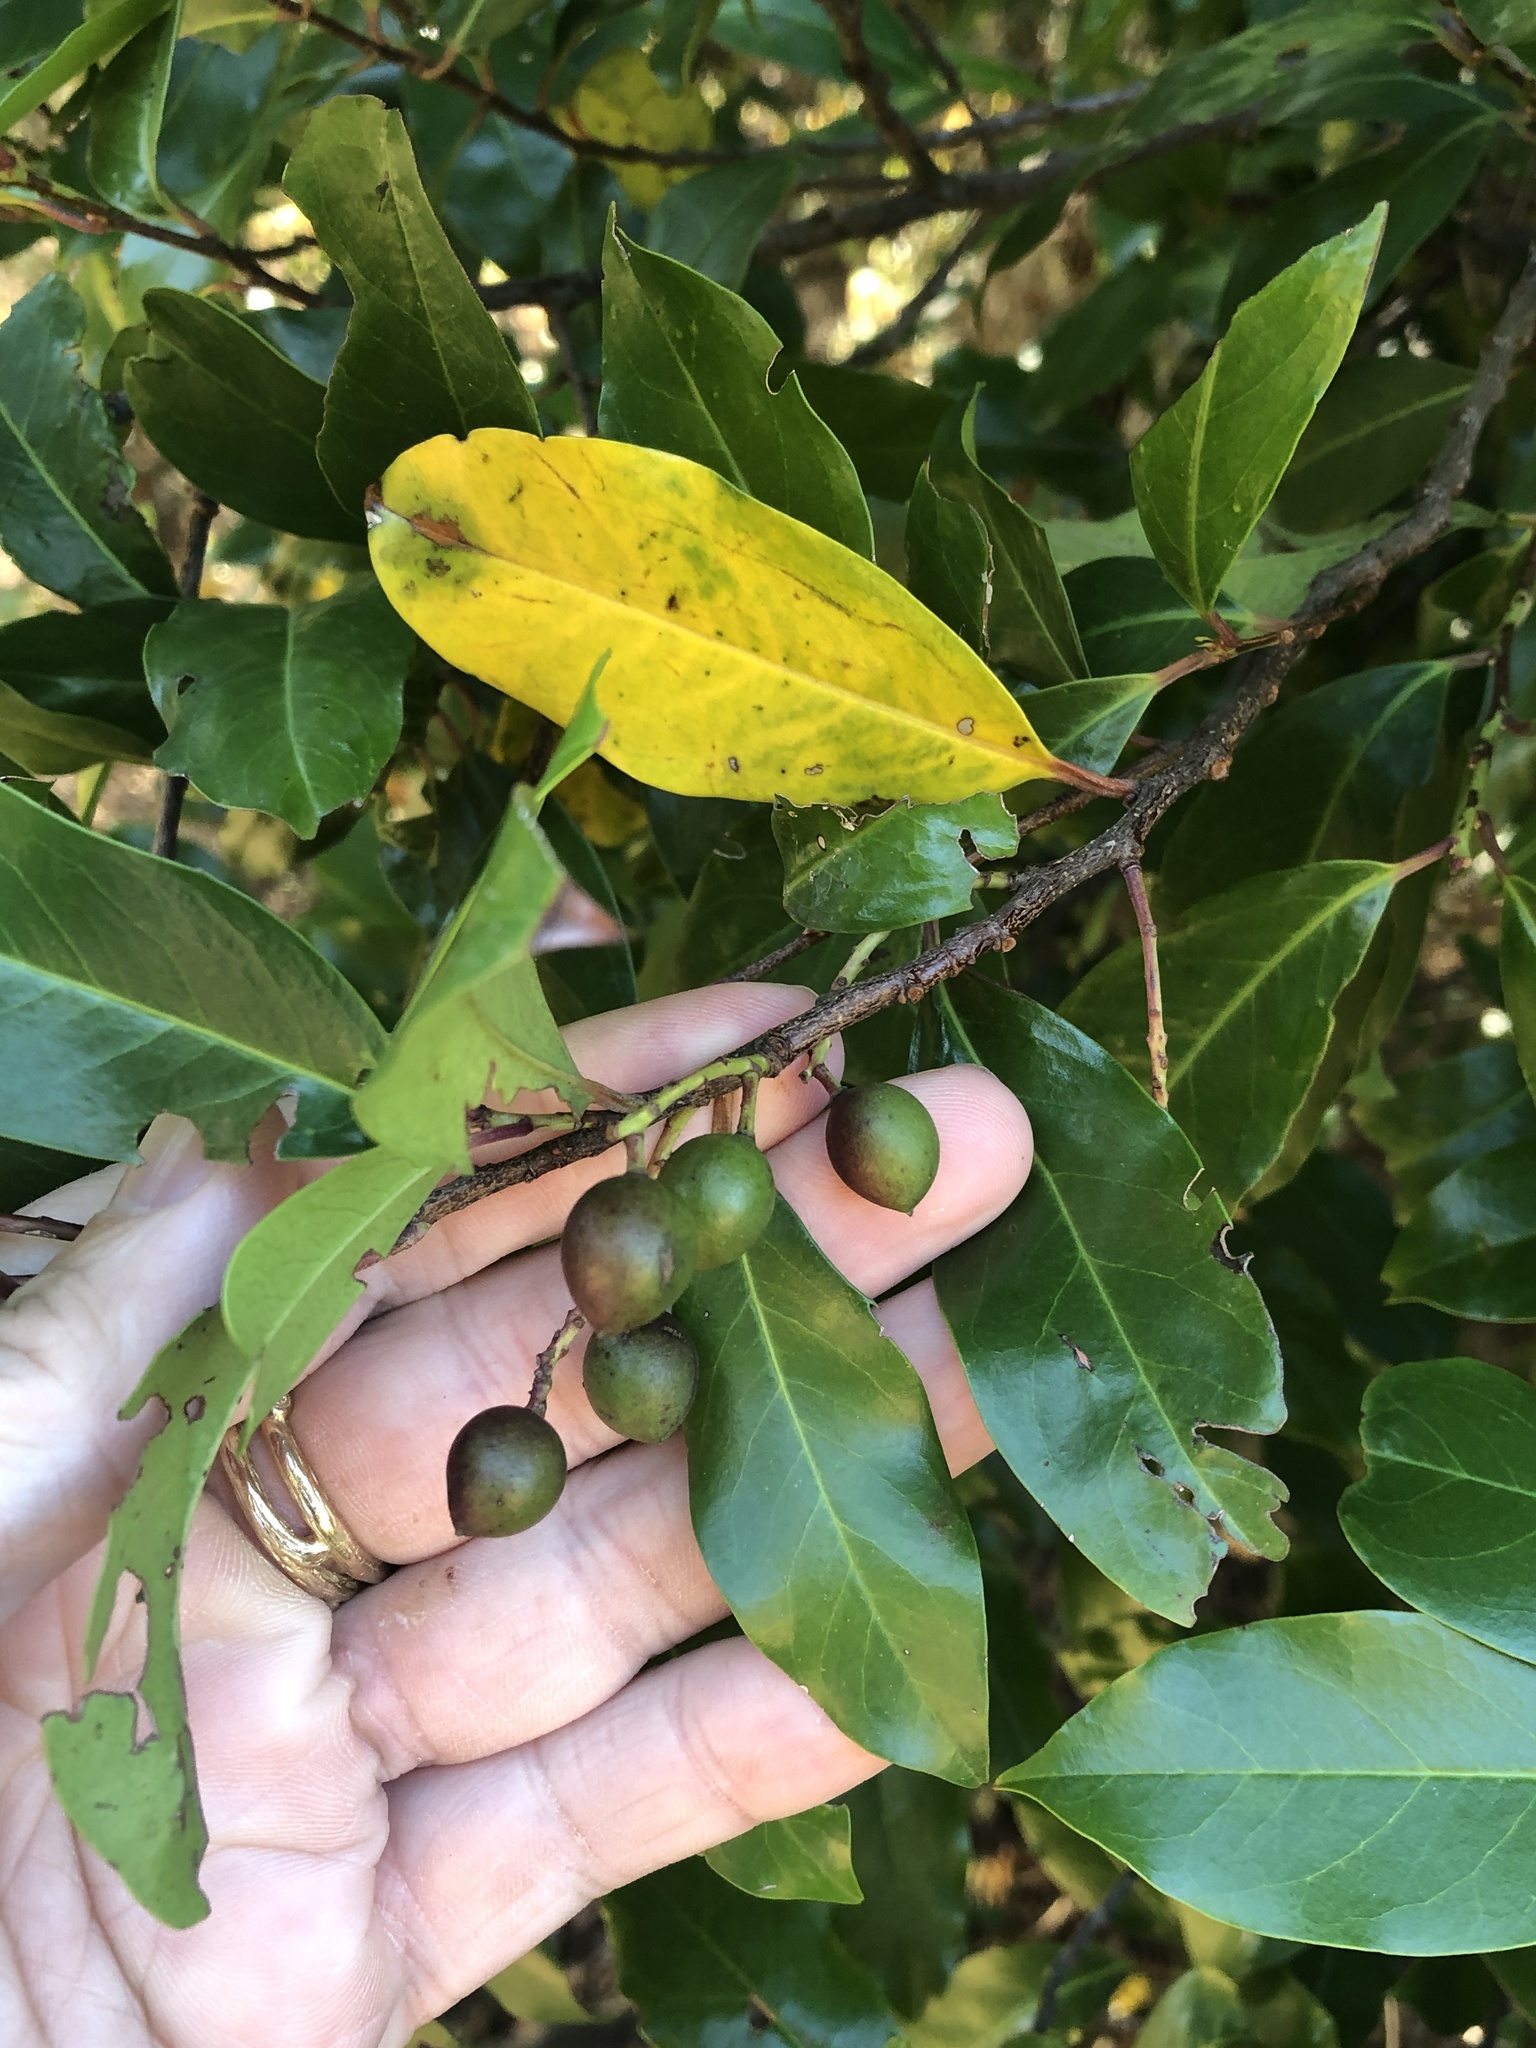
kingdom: Plantae
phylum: Tracheophyta
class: Magnoliopsida
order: Rosales
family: Rosaceae
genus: Prunus
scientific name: Prunus caroliniana
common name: Carolina laurel cherry
